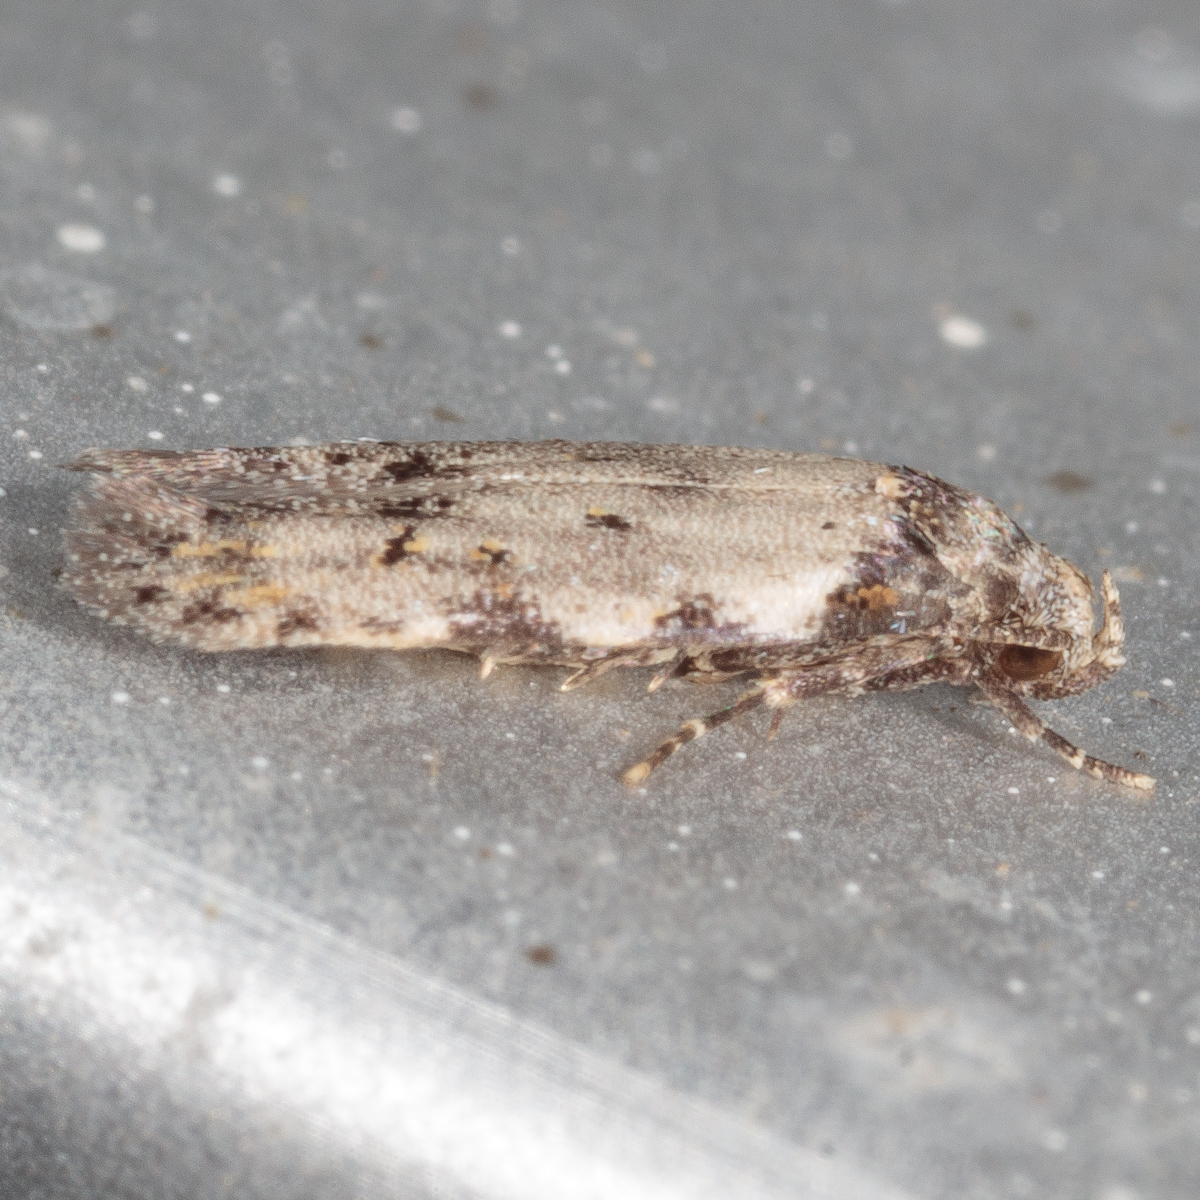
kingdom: Animalia
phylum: Arthropoda
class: Insecta
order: Lepidoptera
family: Autostichidae
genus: Taygete
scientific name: Taygete attributella
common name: Triangle-marked twirler moth
